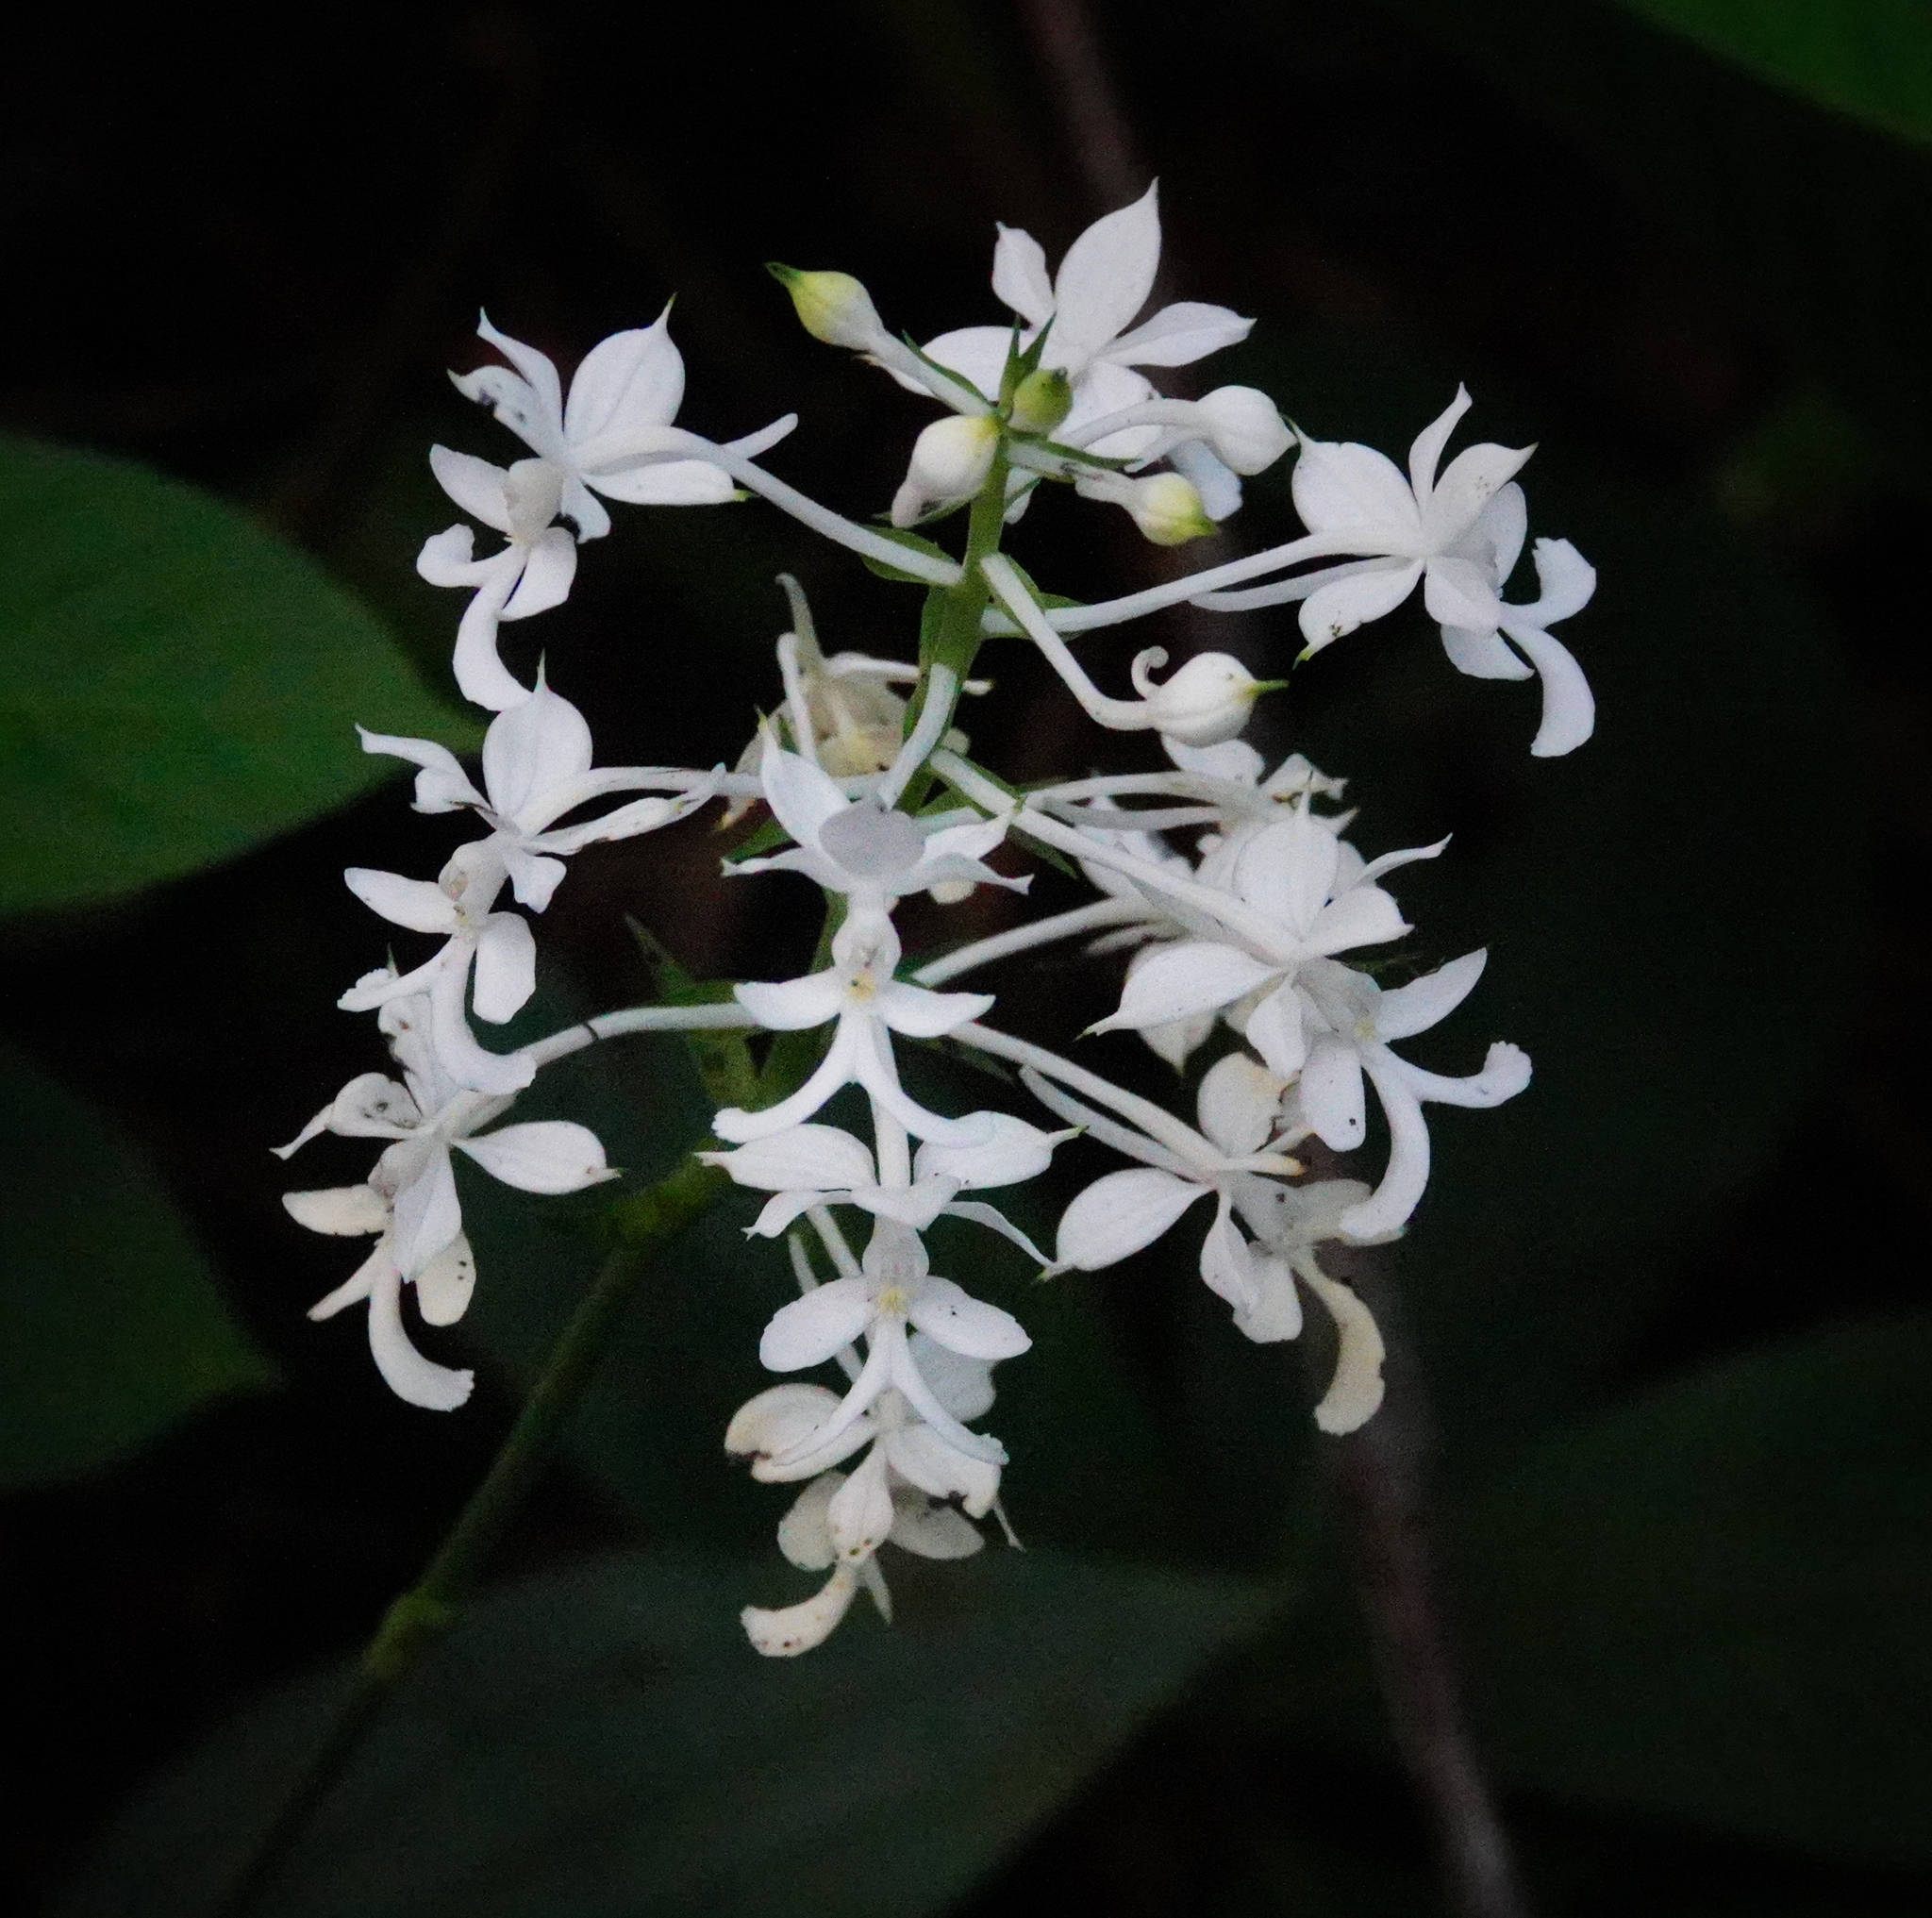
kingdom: Plantae
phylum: Tracheophyta
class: Liliopsida
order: Asparagales
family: Orchidaceae
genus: Calanthe
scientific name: Calanthe triplicata
